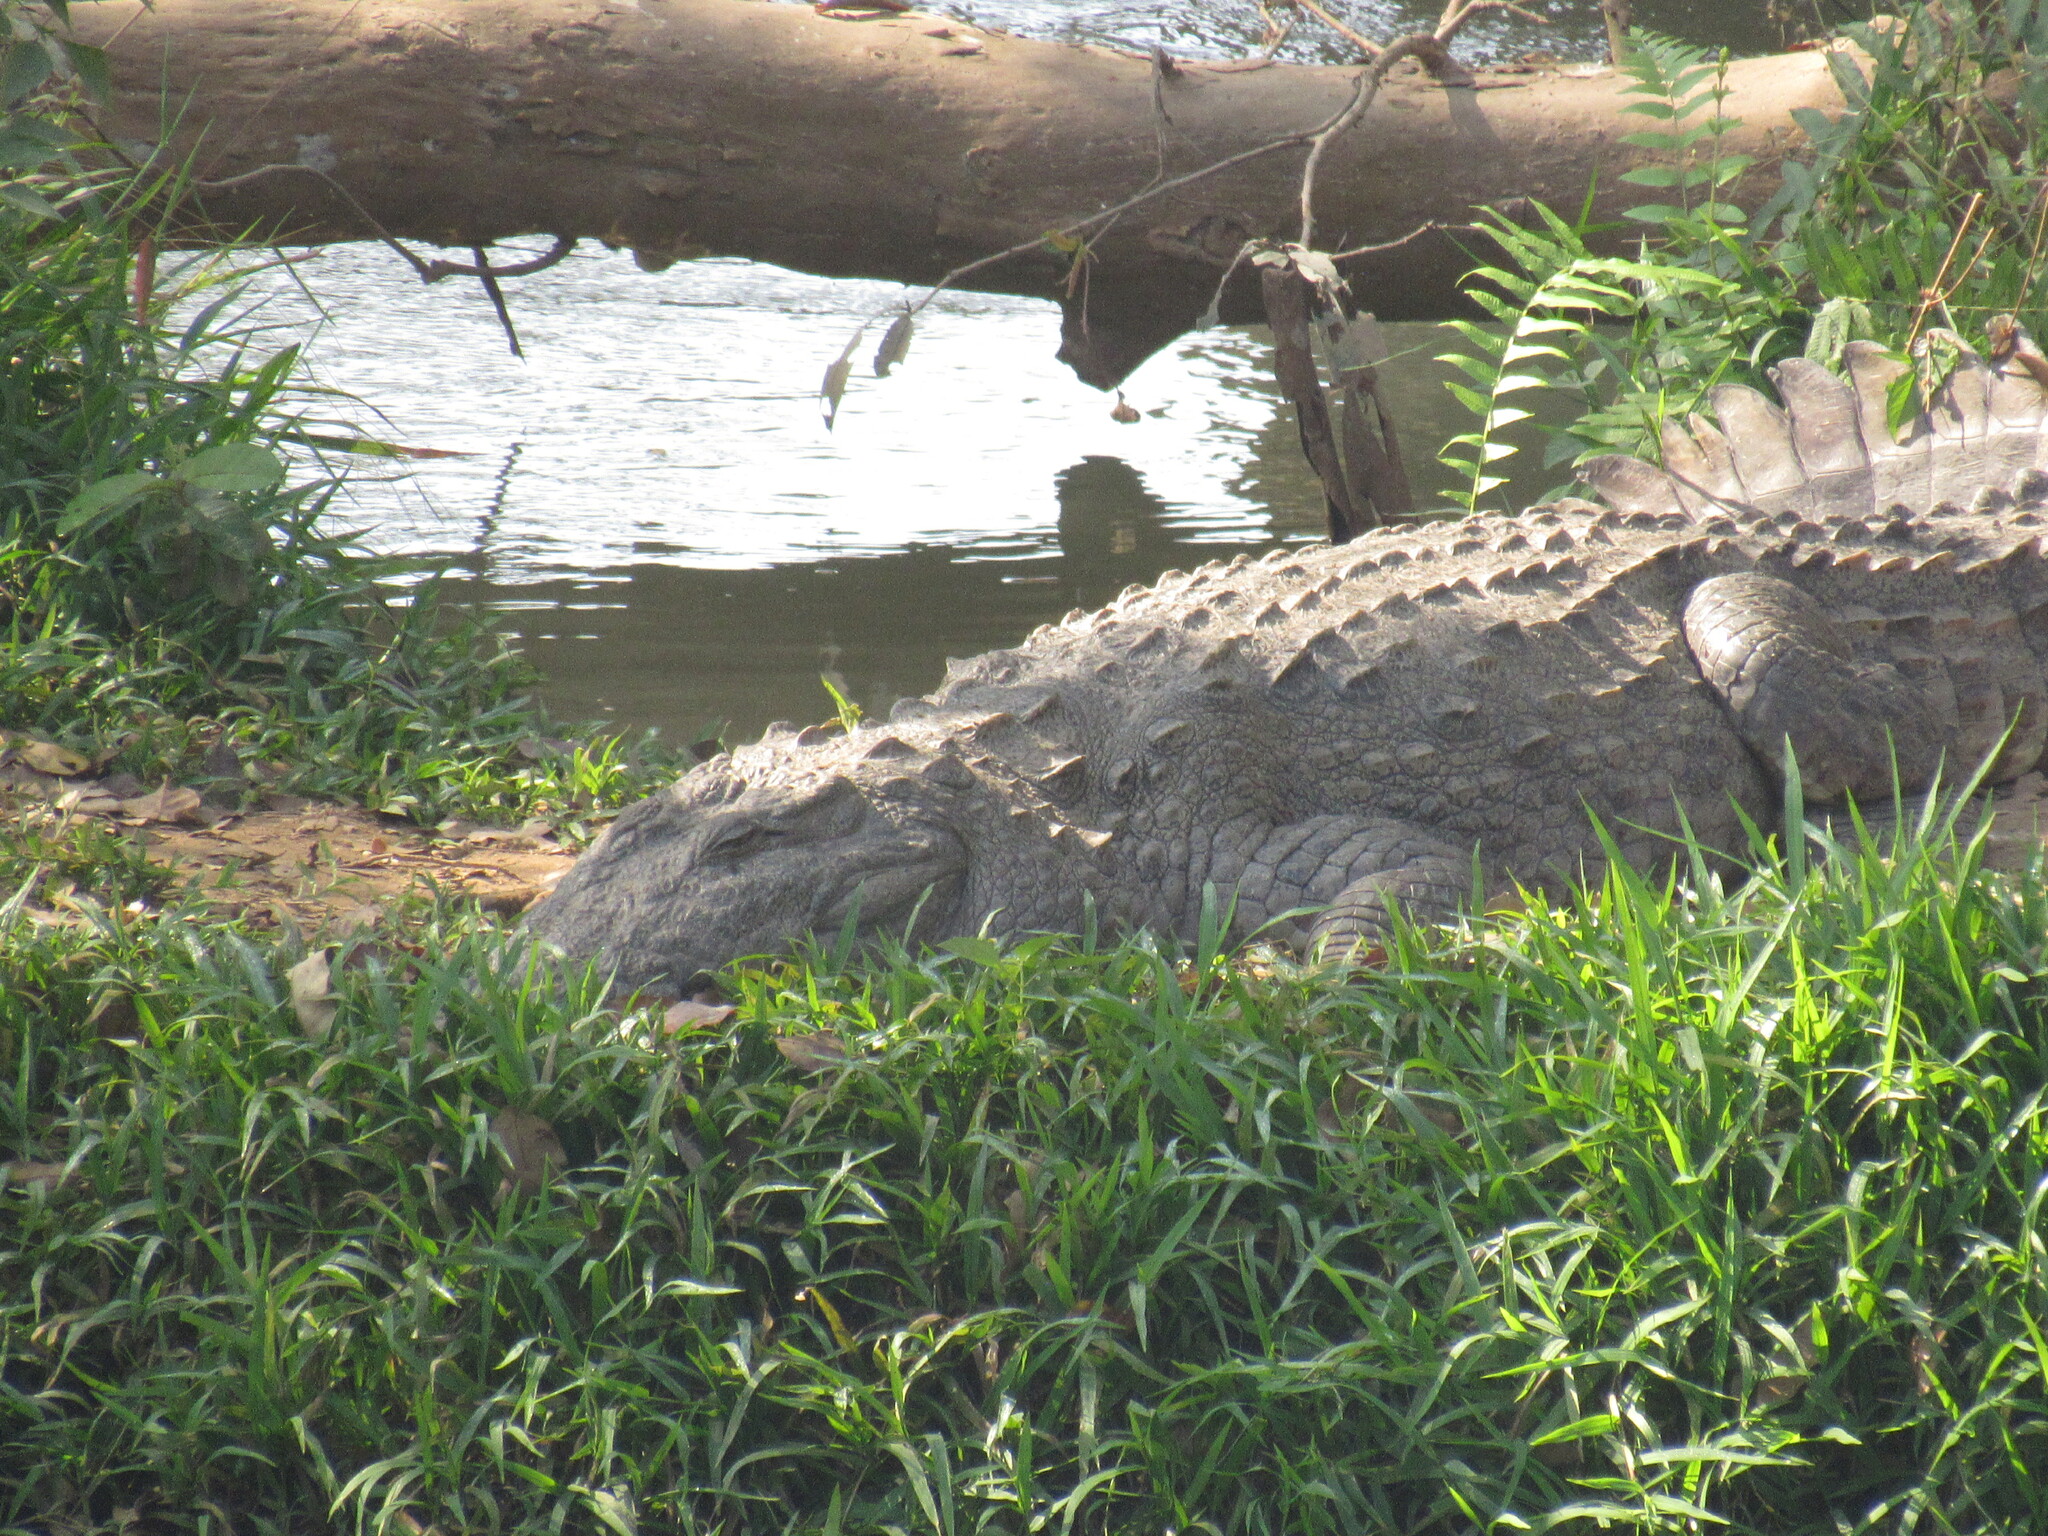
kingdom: Animalia
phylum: Chordata
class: Crocodylia
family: Crocodylidae
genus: Crocodylus
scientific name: Crocodylus palustris
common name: Mugger crocodile
